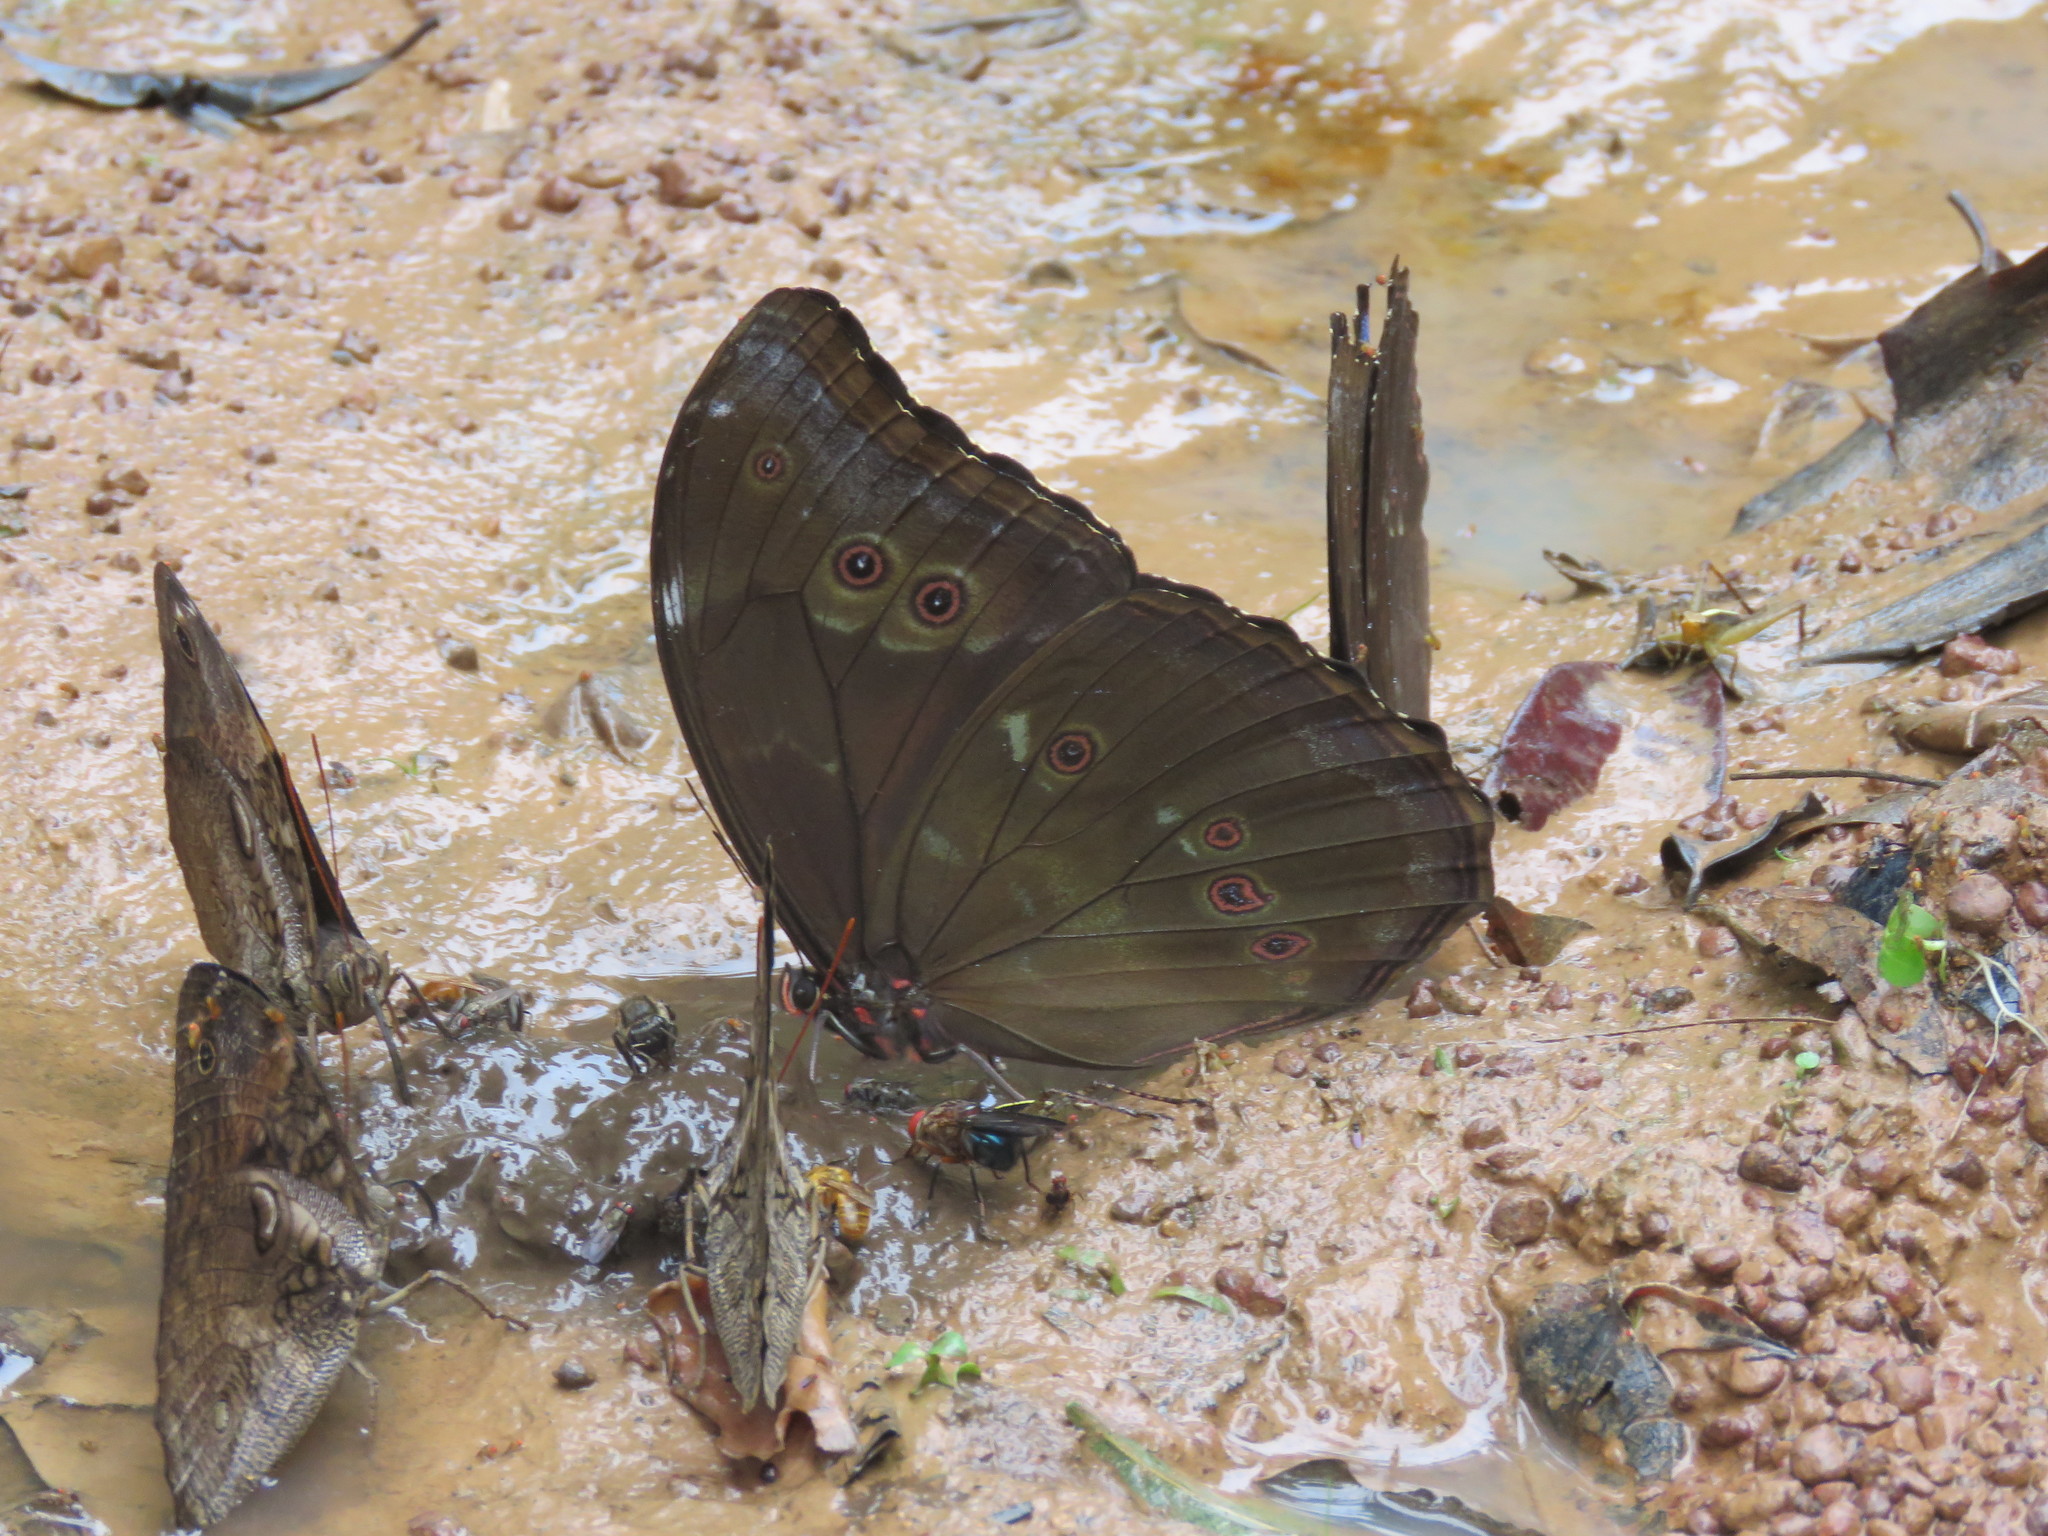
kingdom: Animalia
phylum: Arthropoda
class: Insecta
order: Lepidoptera
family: Nymphalidae
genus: Morpho
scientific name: Morpho menelaus
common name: Menelaus morpho
